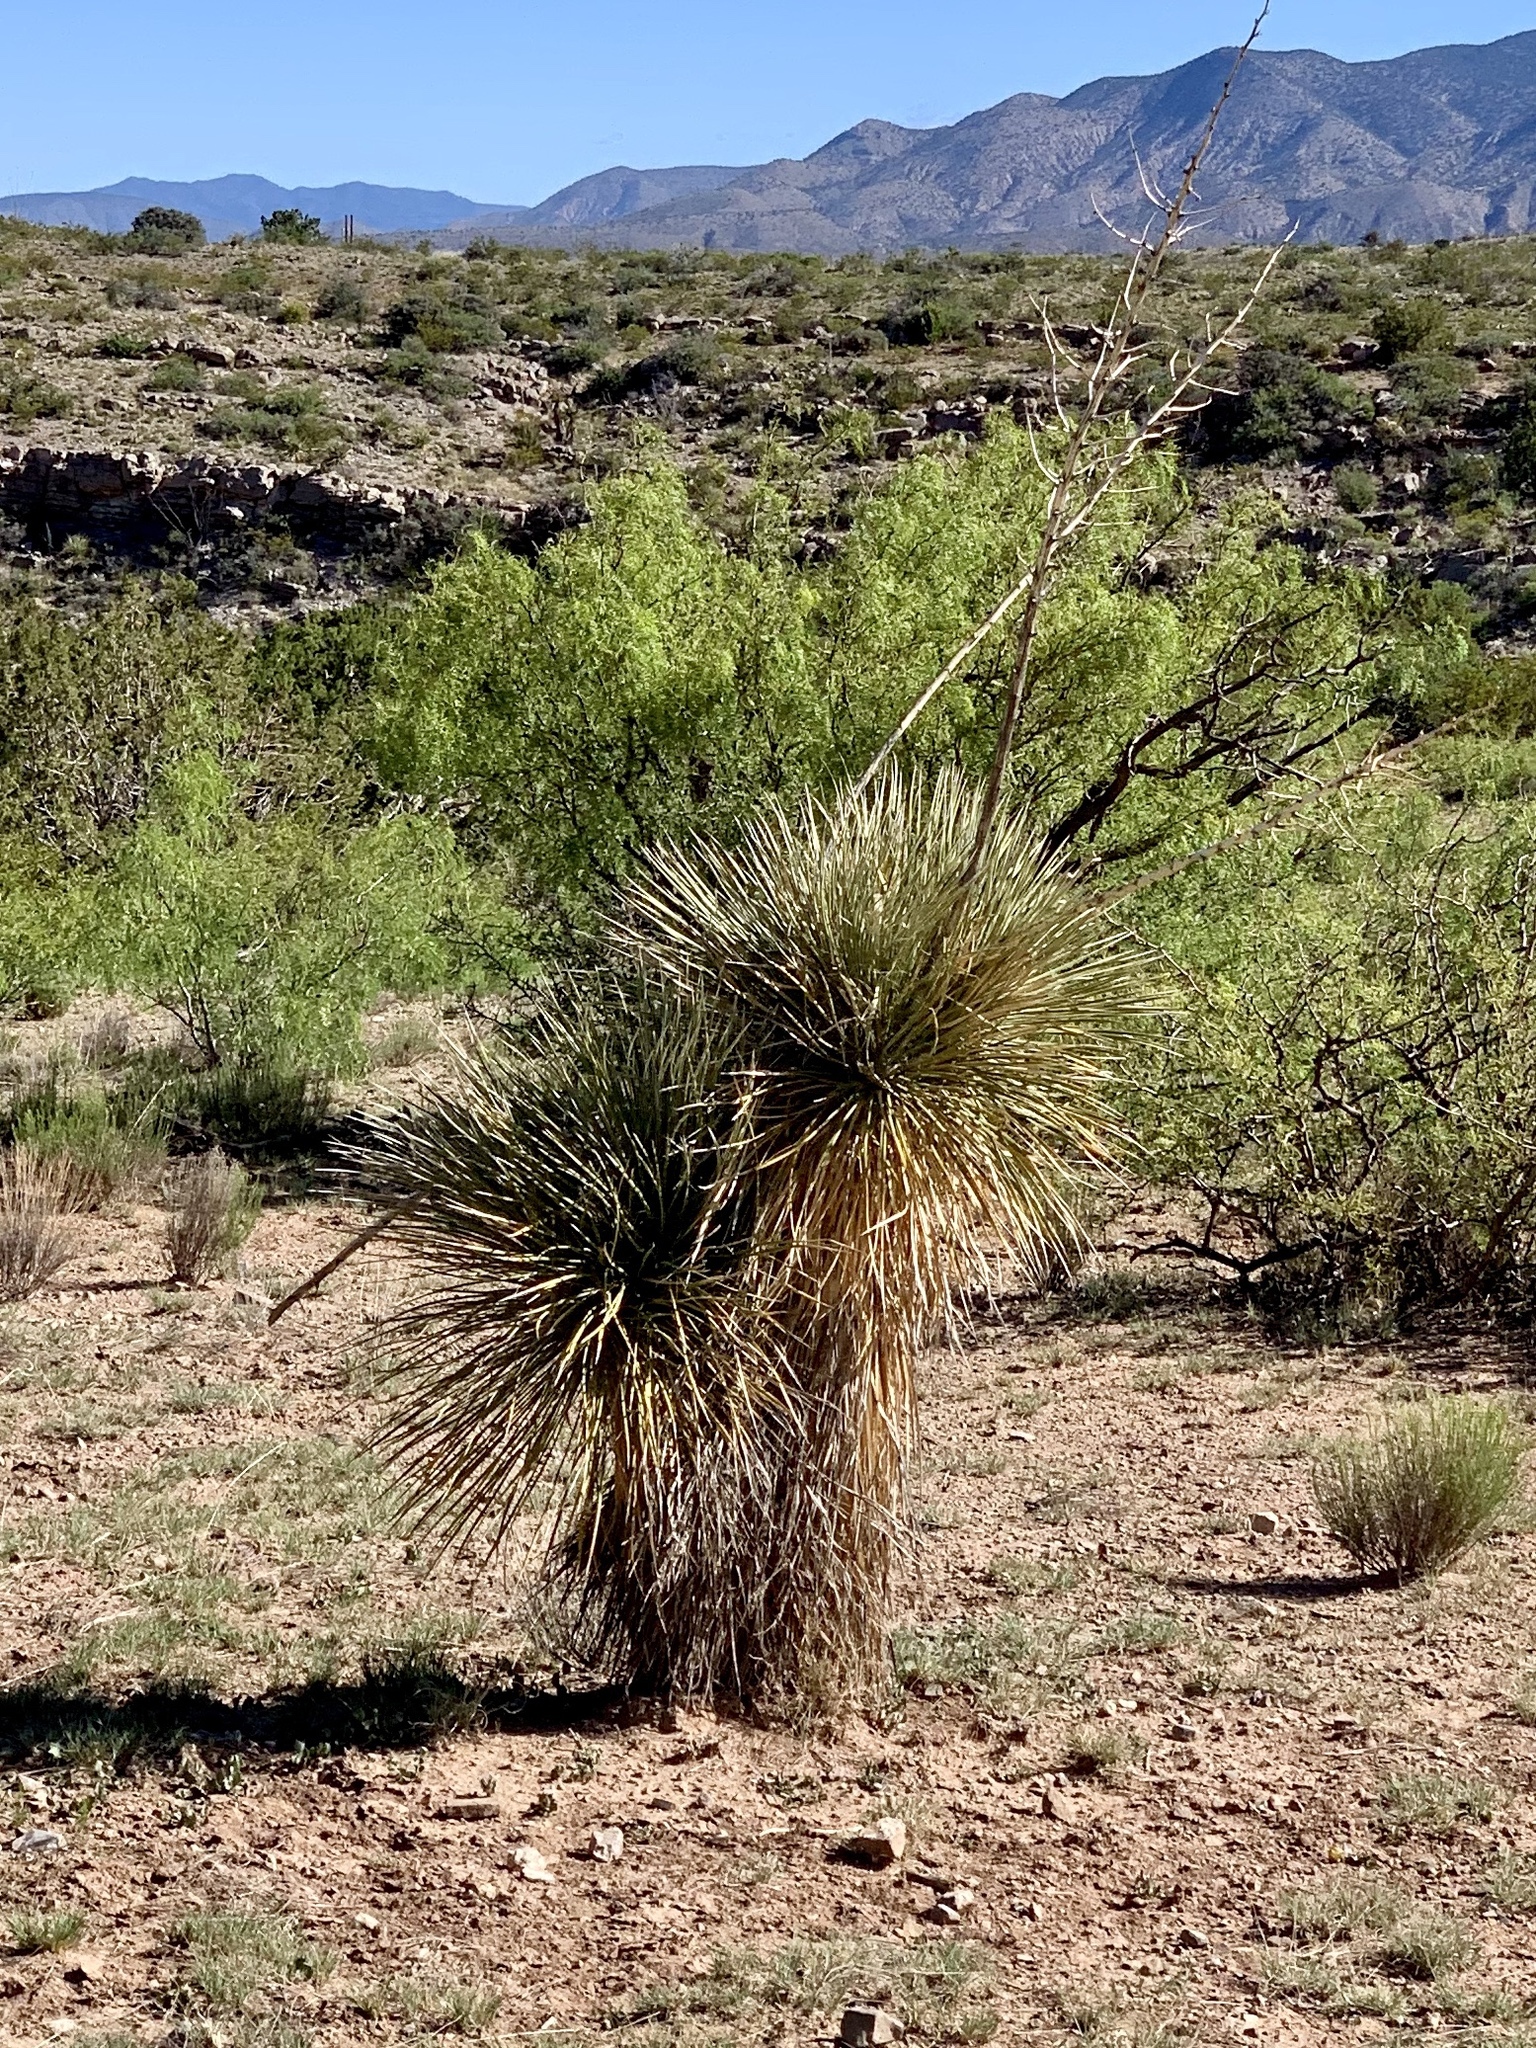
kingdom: Plantae
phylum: Tracheophyta
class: Liliopsida
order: Asparagales
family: Asparagaceae
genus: Yucca
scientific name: Yucca elata
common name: Palmella
